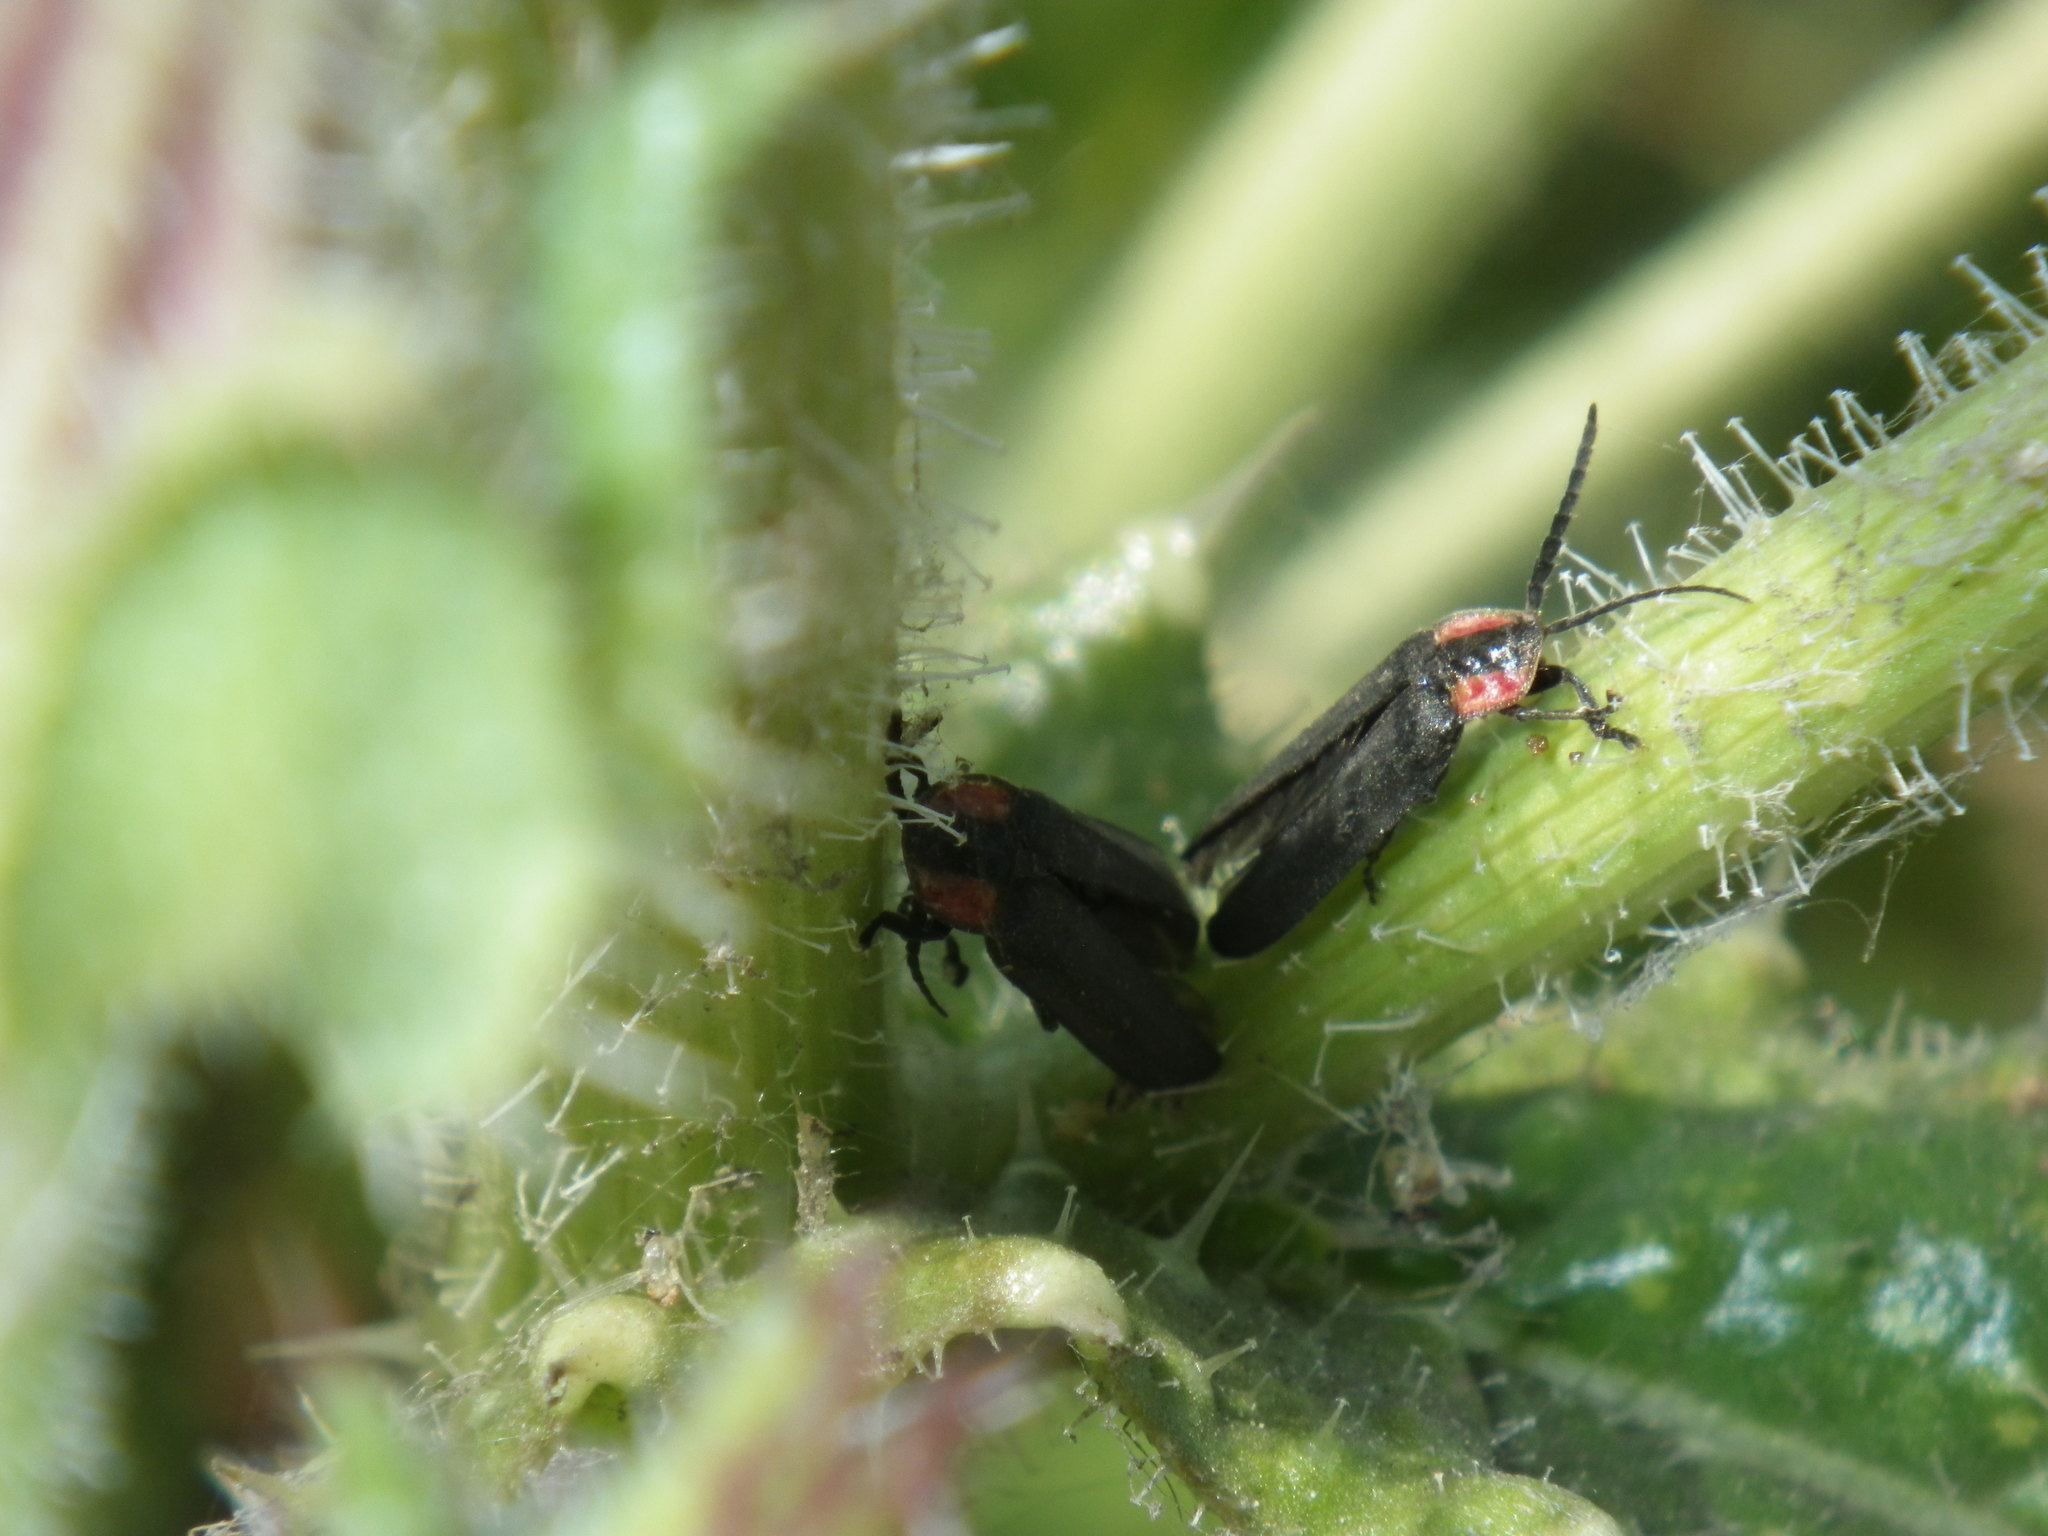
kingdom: Animalia
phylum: Arthropoda
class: Insecta
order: Coleoptera
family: Lampyridae
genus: Photinus
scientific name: Photinus californica
